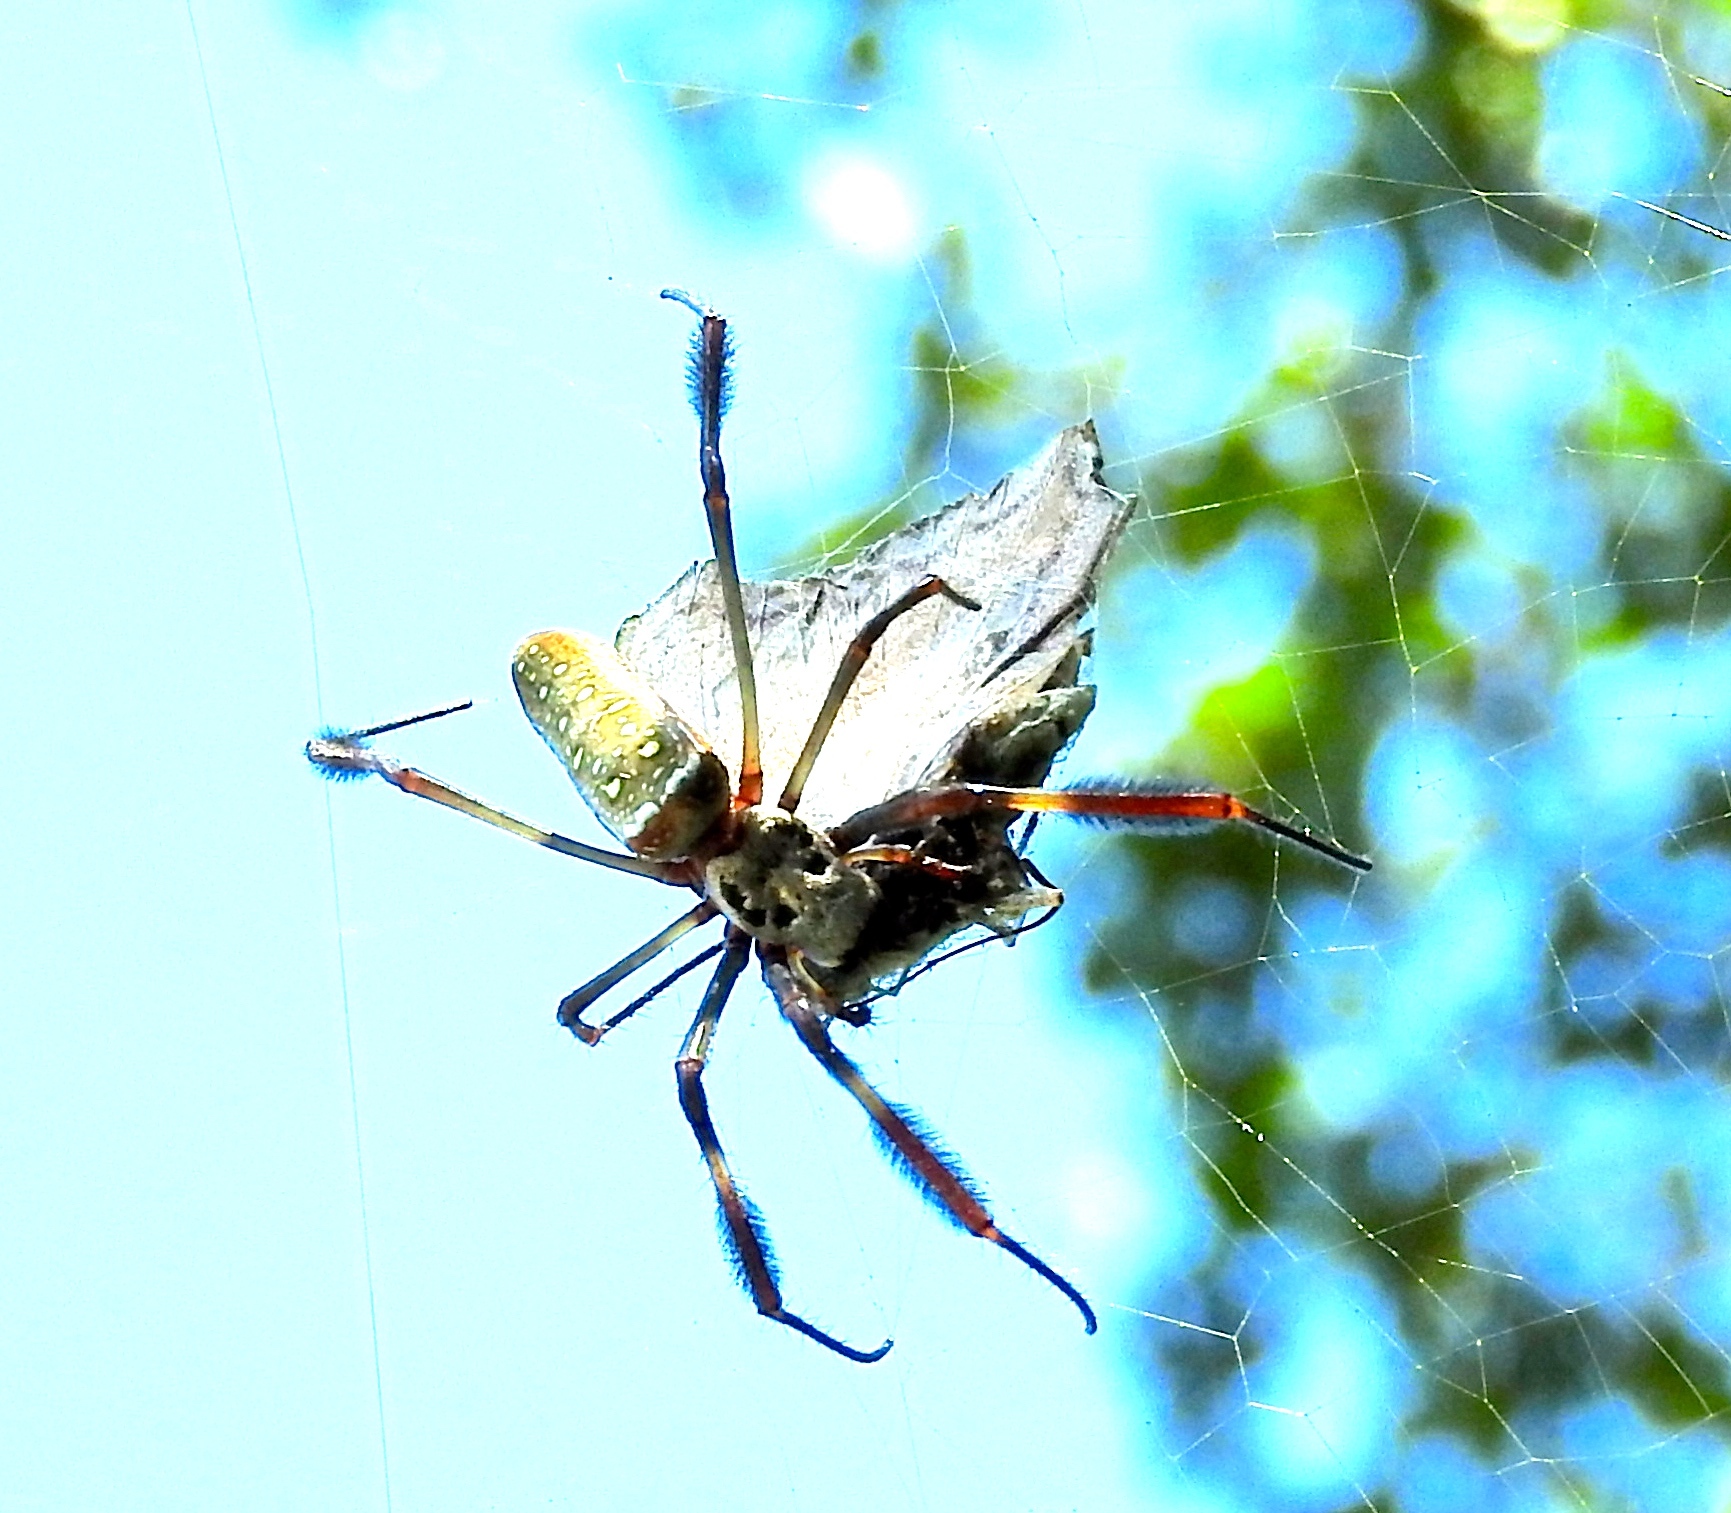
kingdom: Animalia
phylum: Arthropoda
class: Arachnida
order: Araneae
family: Araneidae
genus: Trichonephila
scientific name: Trichonephila clavipes
